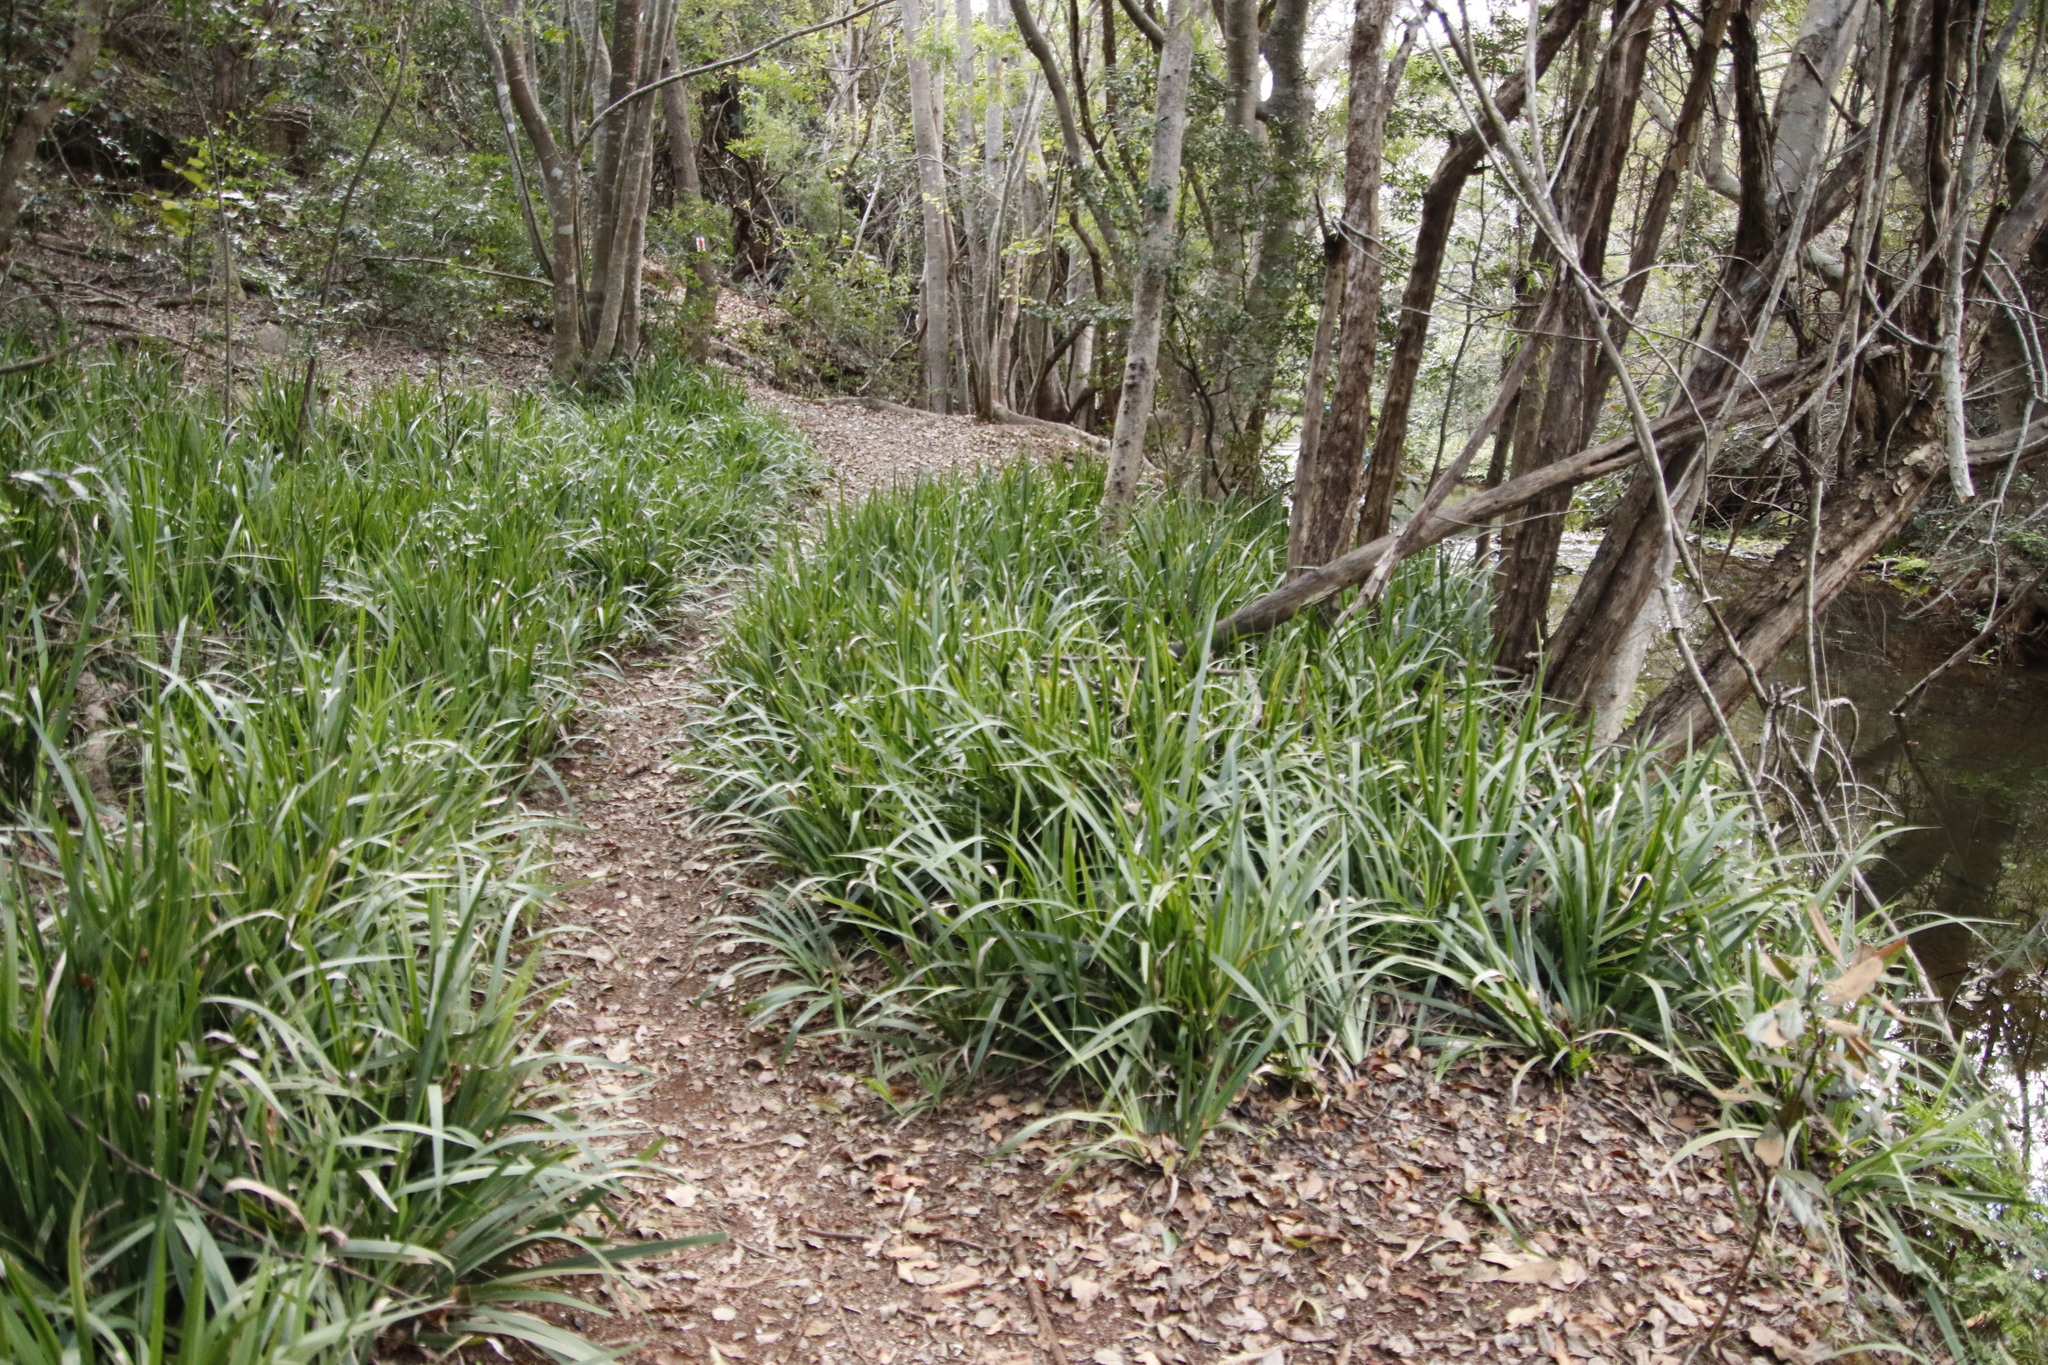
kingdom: Plantae
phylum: Tracheophyta
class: Liliopsida
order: Asparagales
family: Iridaceae
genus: Dietes
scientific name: Dietes iridioides
